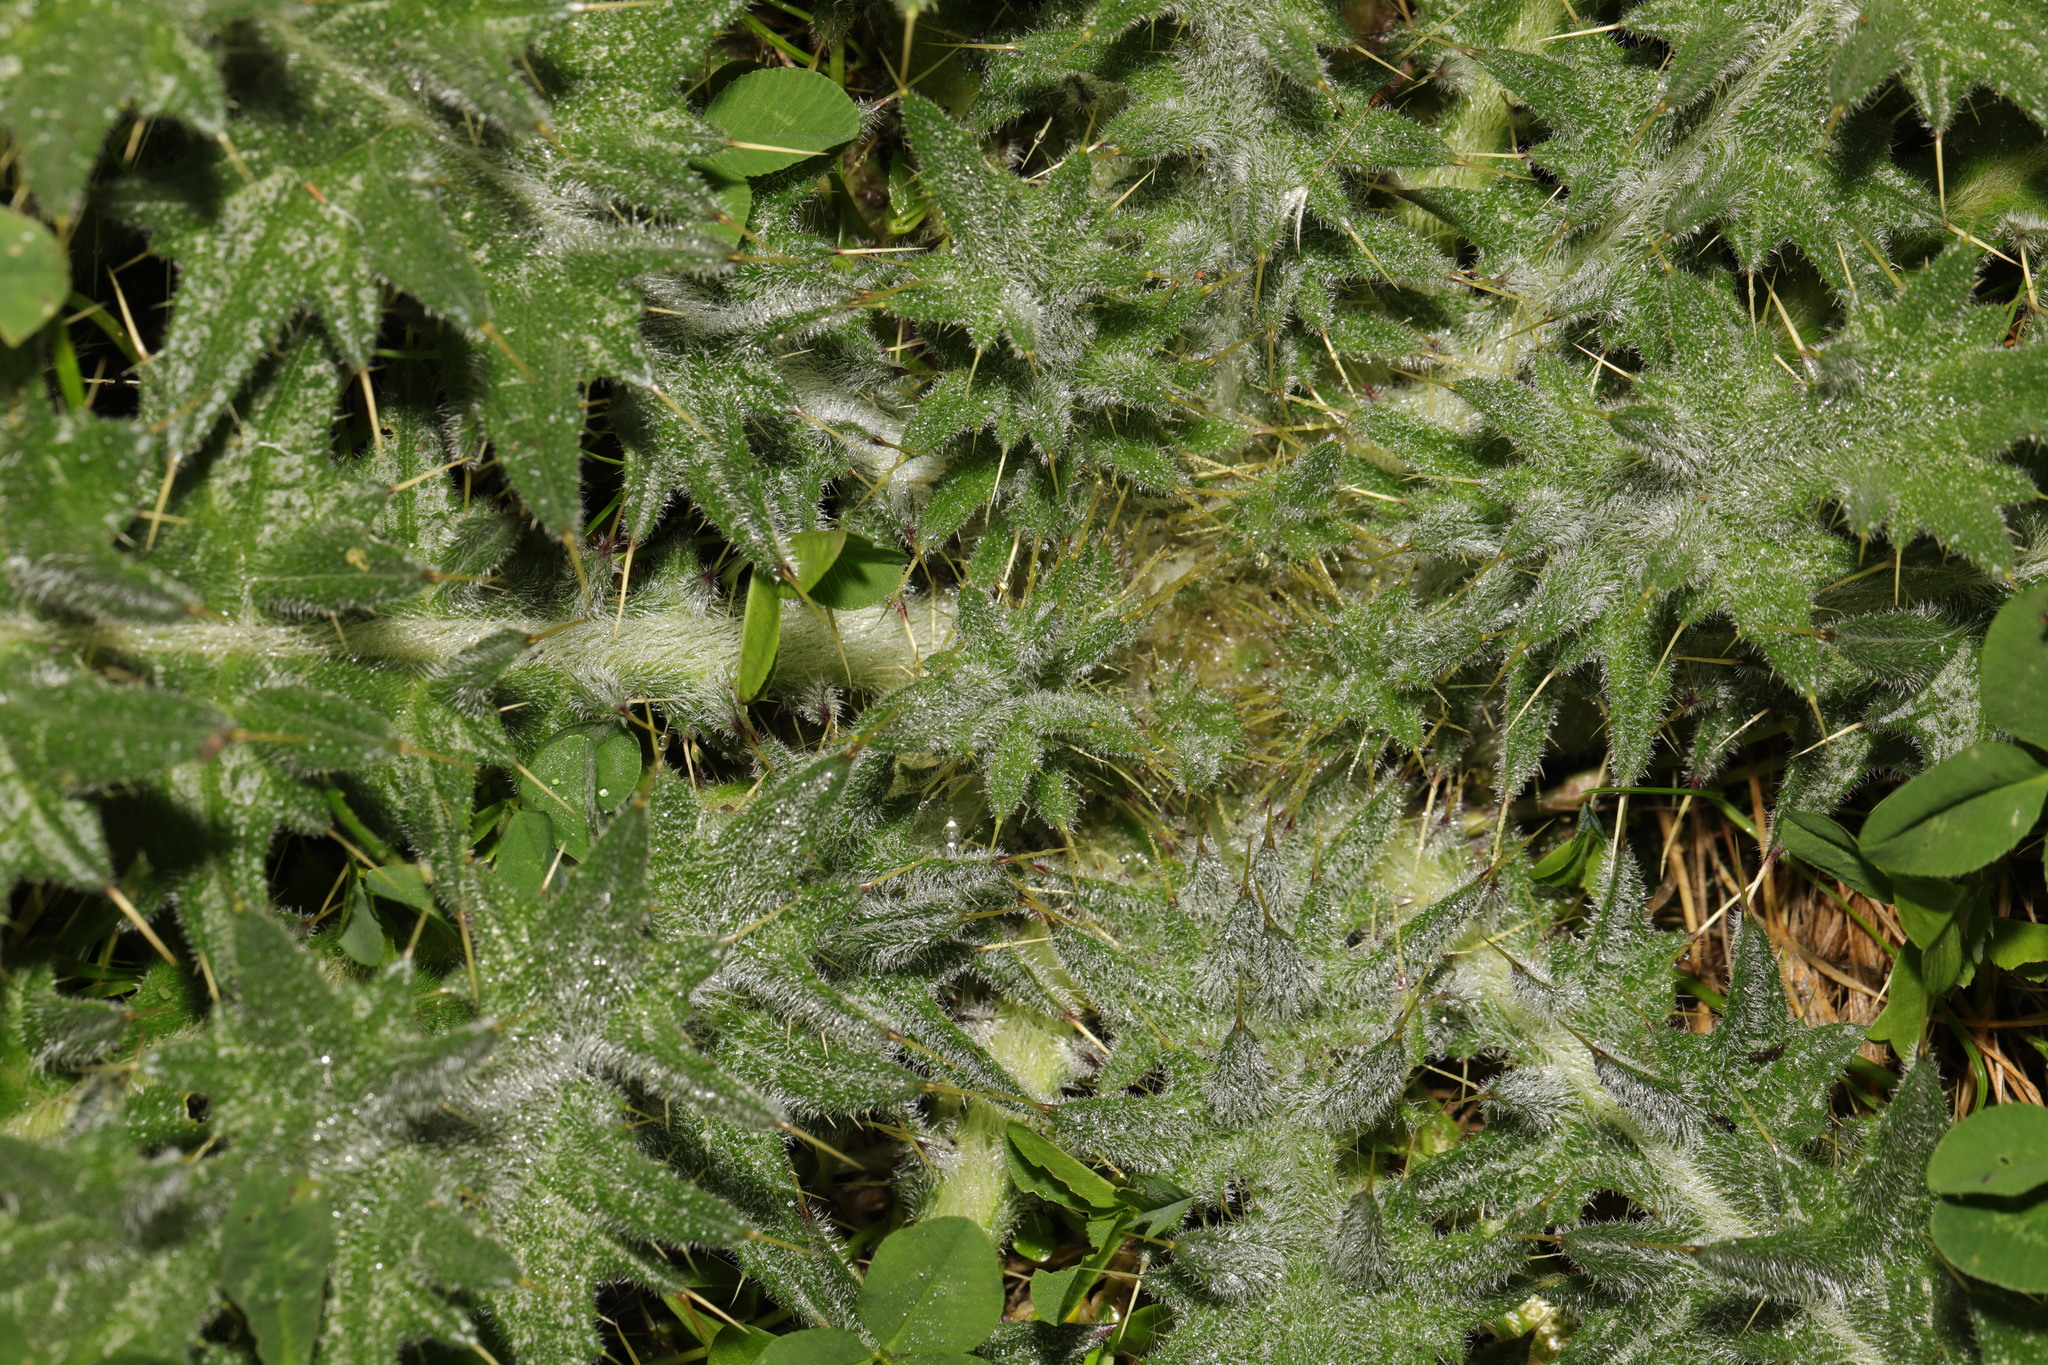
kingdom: Plantae
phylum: Tracheophyta
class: Magnoliopsida
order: Asterales
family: Asteraceae
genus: Cirsium
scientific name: Cirsium vulgare
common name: Bull thistle
